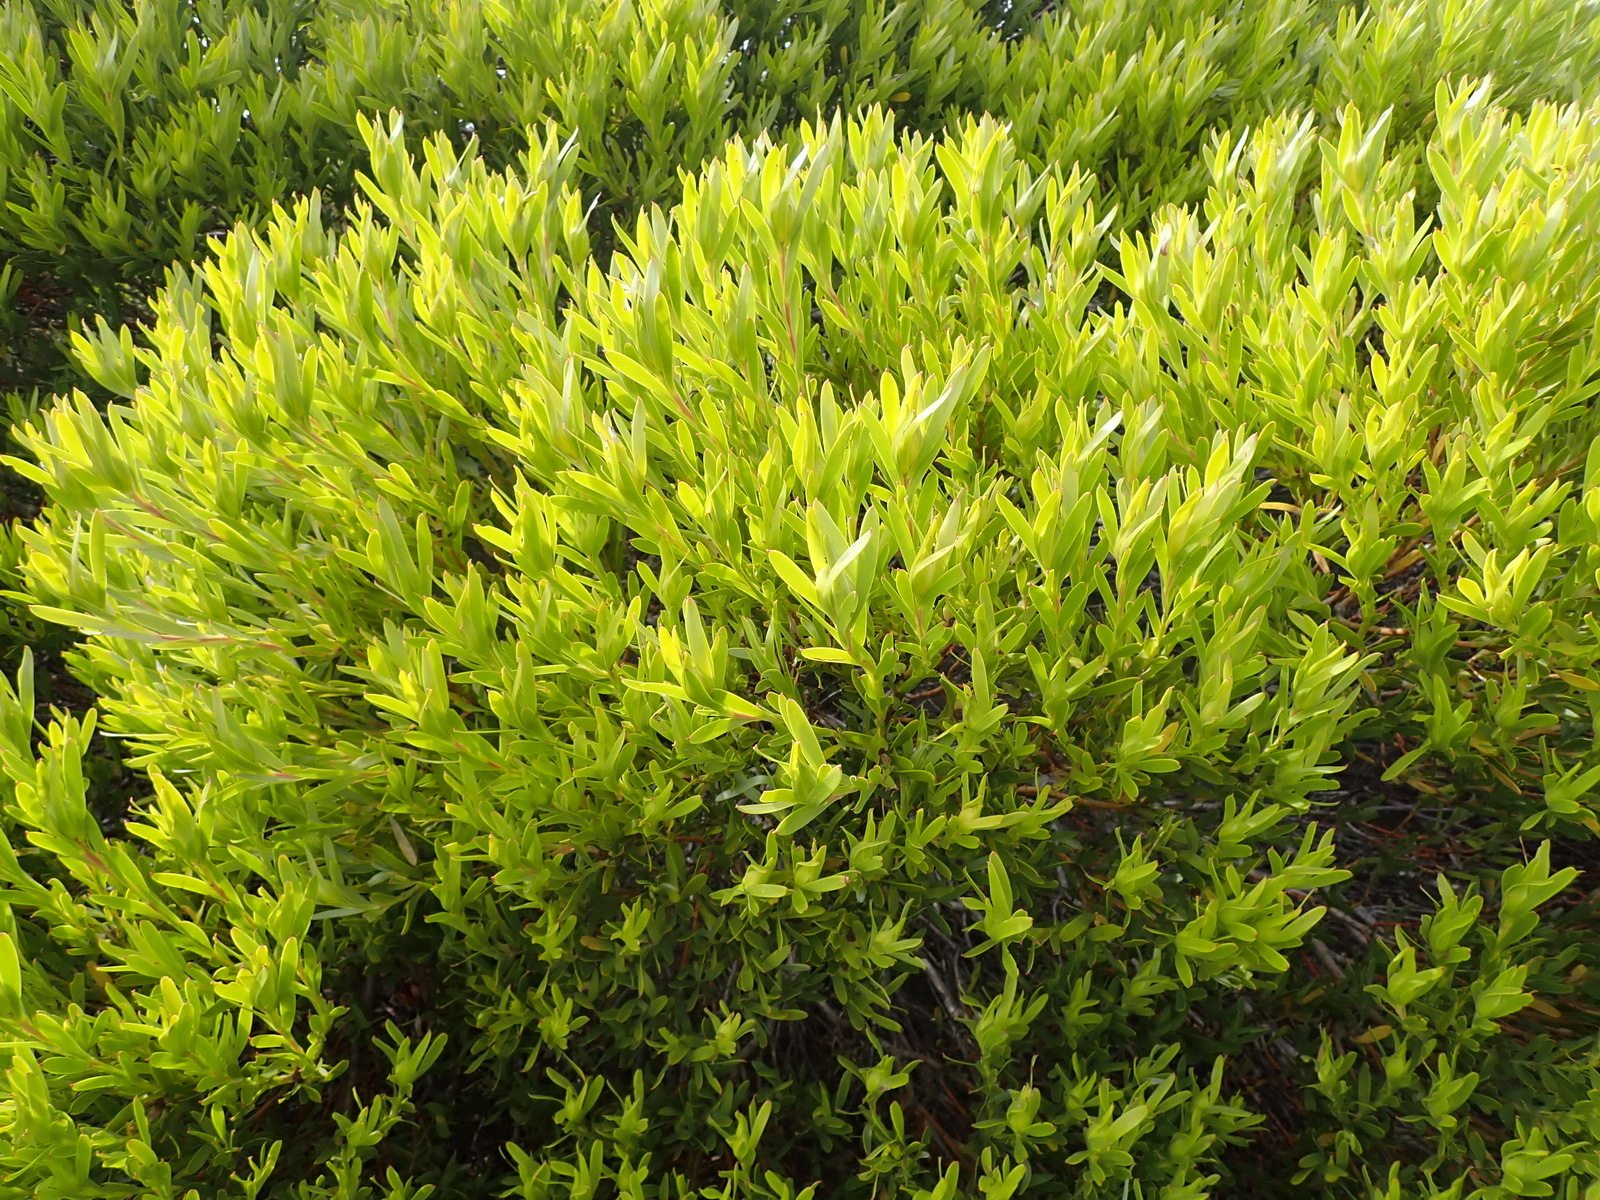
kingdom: Plantae
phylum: Tracheophyta
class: Magnoliopsida
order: Proteales
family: Proteaceae
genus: Leucadendron
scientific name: Leucadendron meridianum
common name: Limestone conebush
